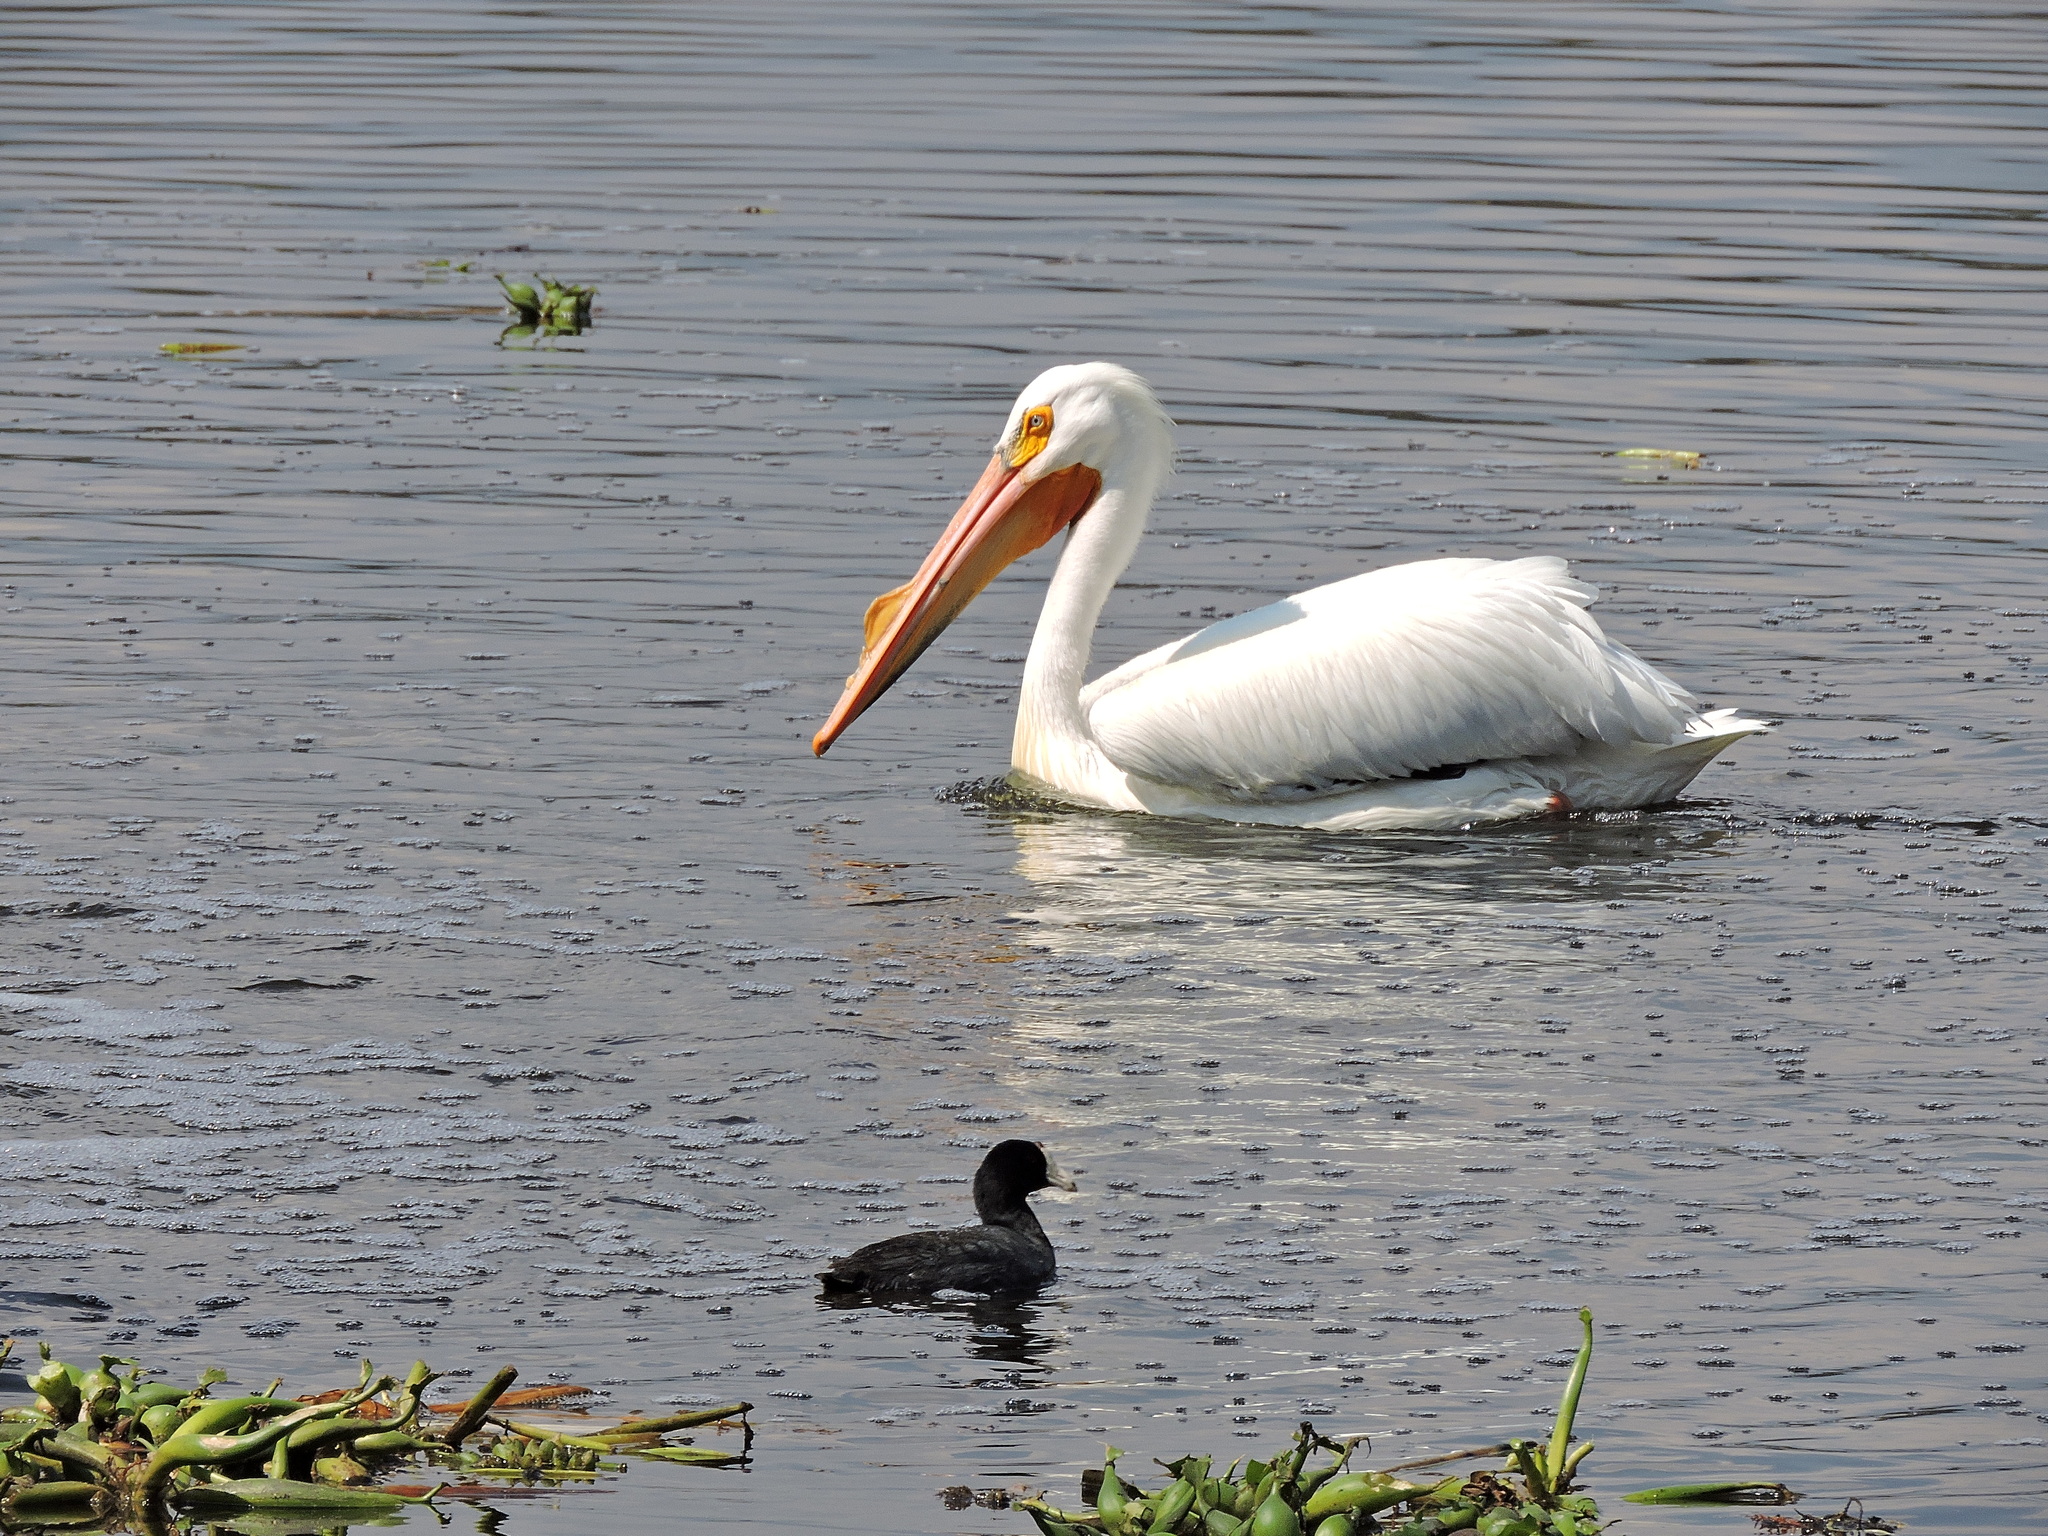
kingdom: Animalia
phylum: Chordata
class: Aves
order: Pelecaniformes
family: Pelecanidae
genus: Pelecanus
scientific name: Pelecanus erythrorhynchos
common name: American white pelican
